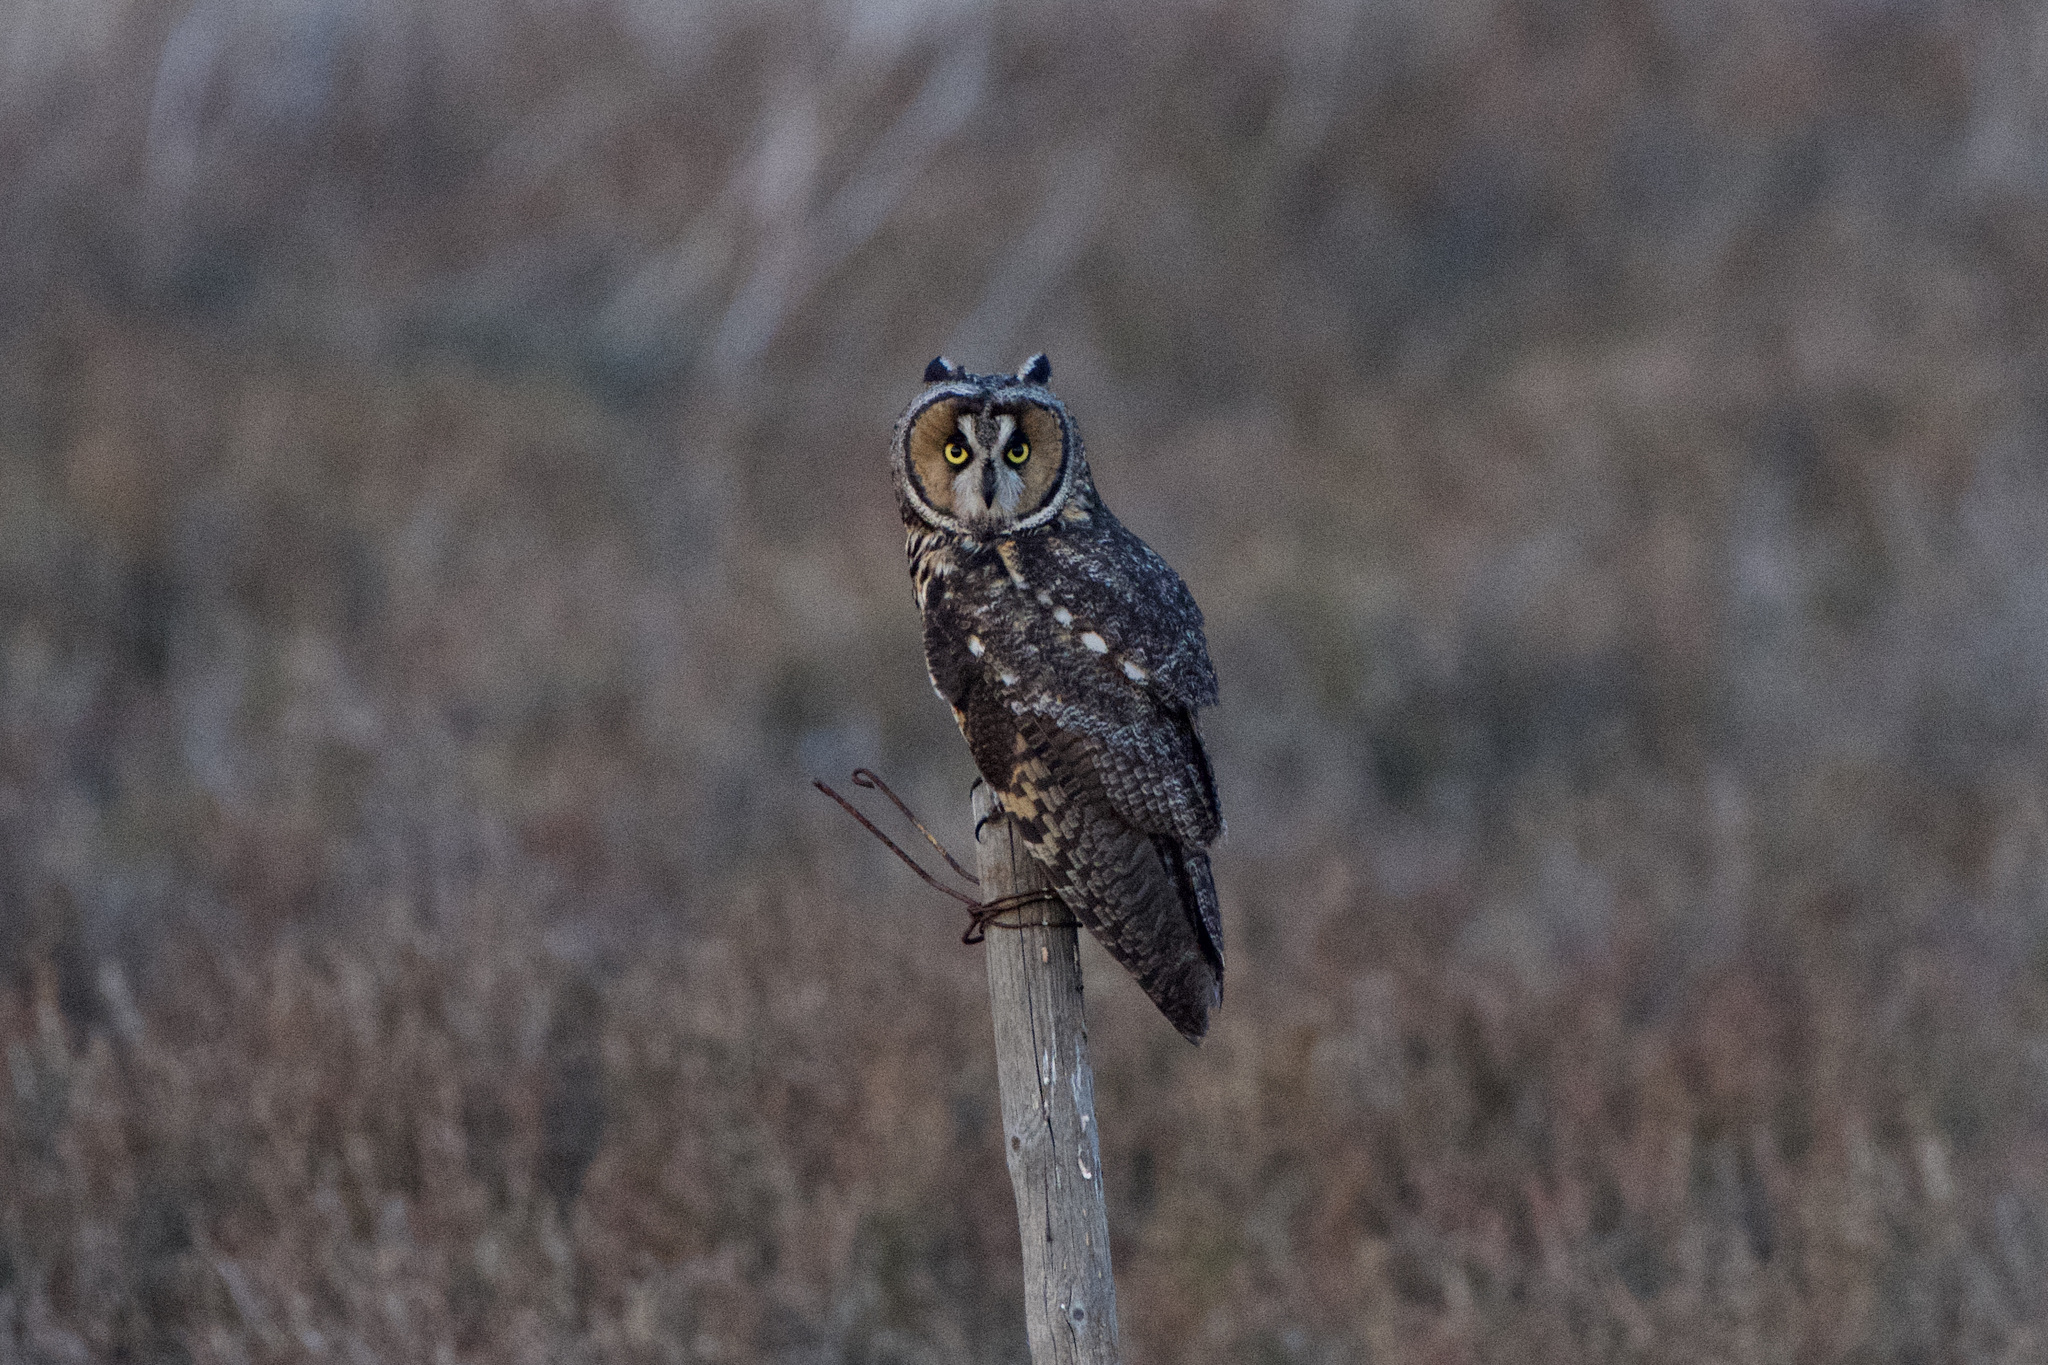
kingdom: Animalia
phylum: Chordata
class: Aves
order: Strigiformes
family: Strigidae
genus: Asio
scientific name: Asio otus
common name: Long-eared owl
